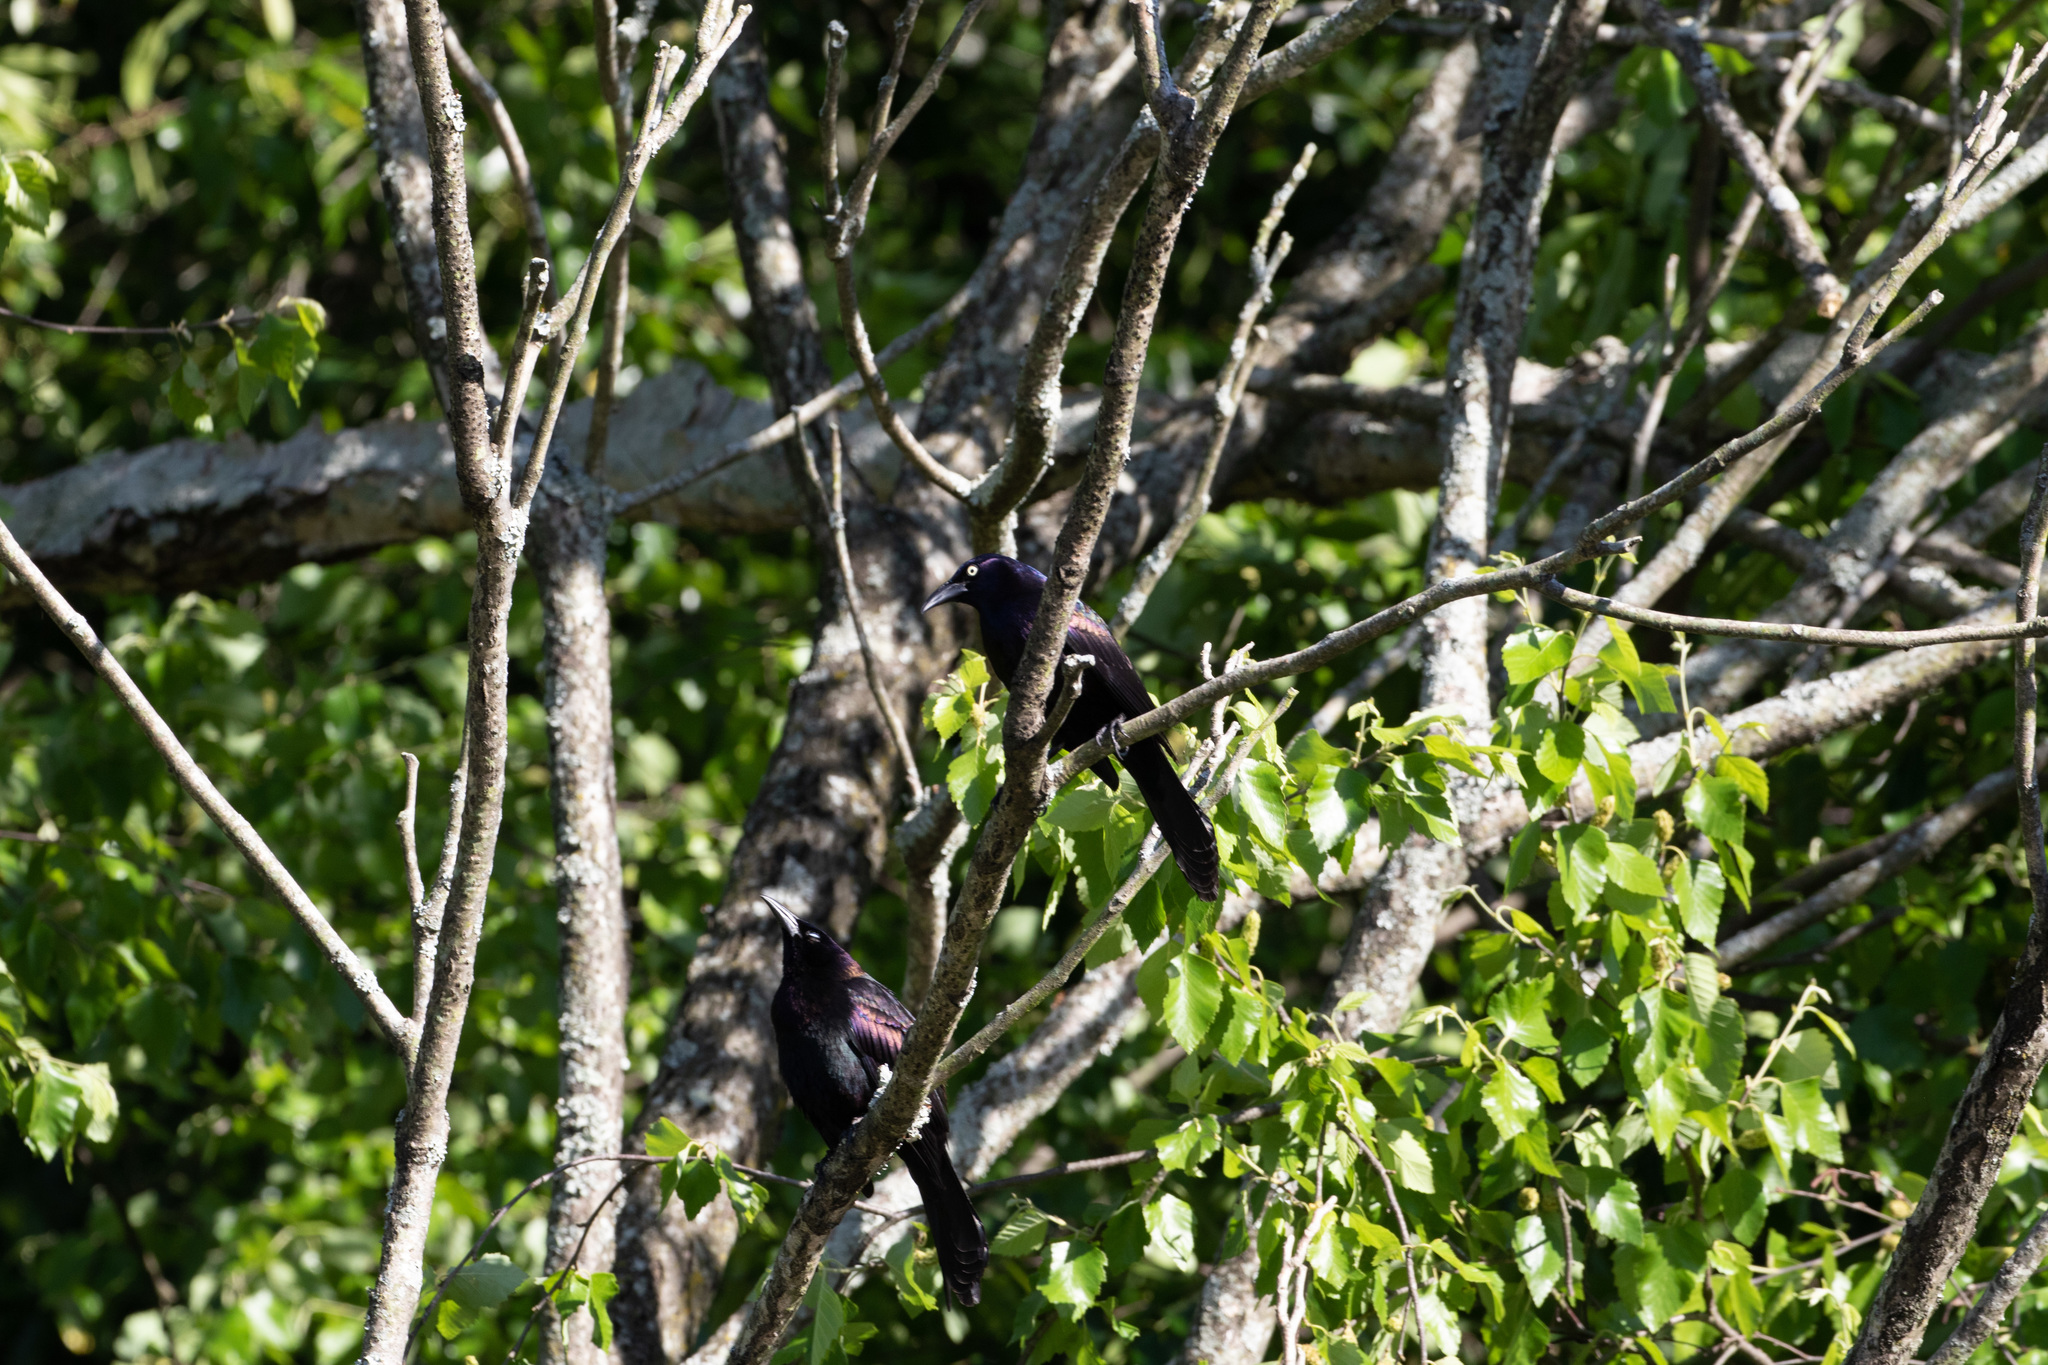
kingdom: Animalia
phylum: Chordata
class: Aves
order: Passeriformes
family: Icteridae
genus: Quiscalus
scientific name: Quiscalus quiscula
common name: Common grackle
